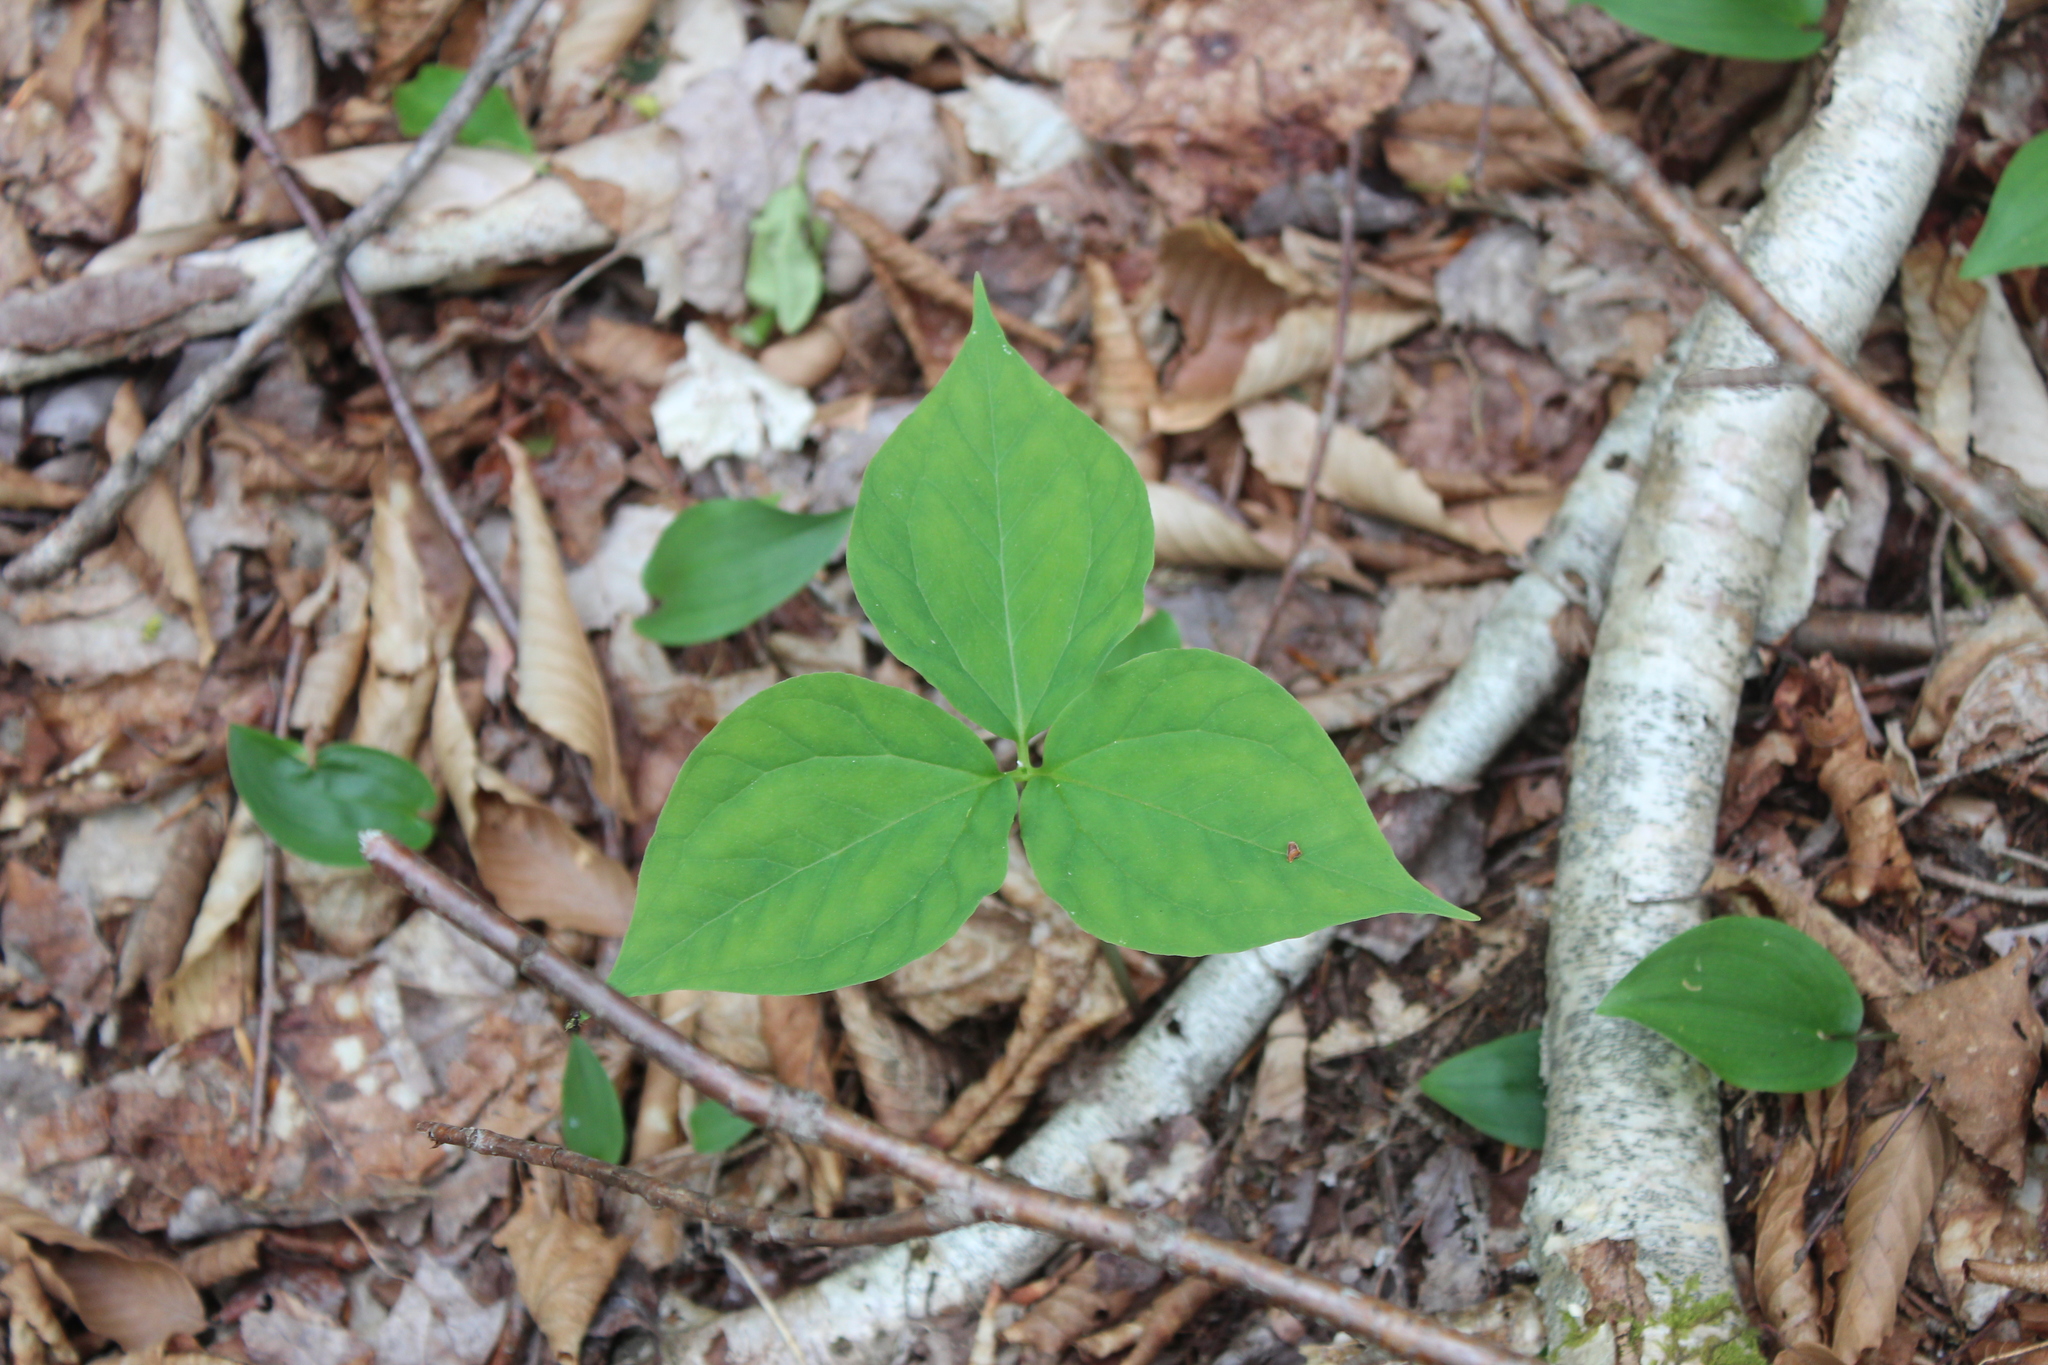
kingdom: Plantae
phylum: Tracheophyta
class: Liliopsida
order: Liliales
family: Melanthiaceae
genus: Trillium
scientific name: Trillium undulatum
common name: Paint trillium
